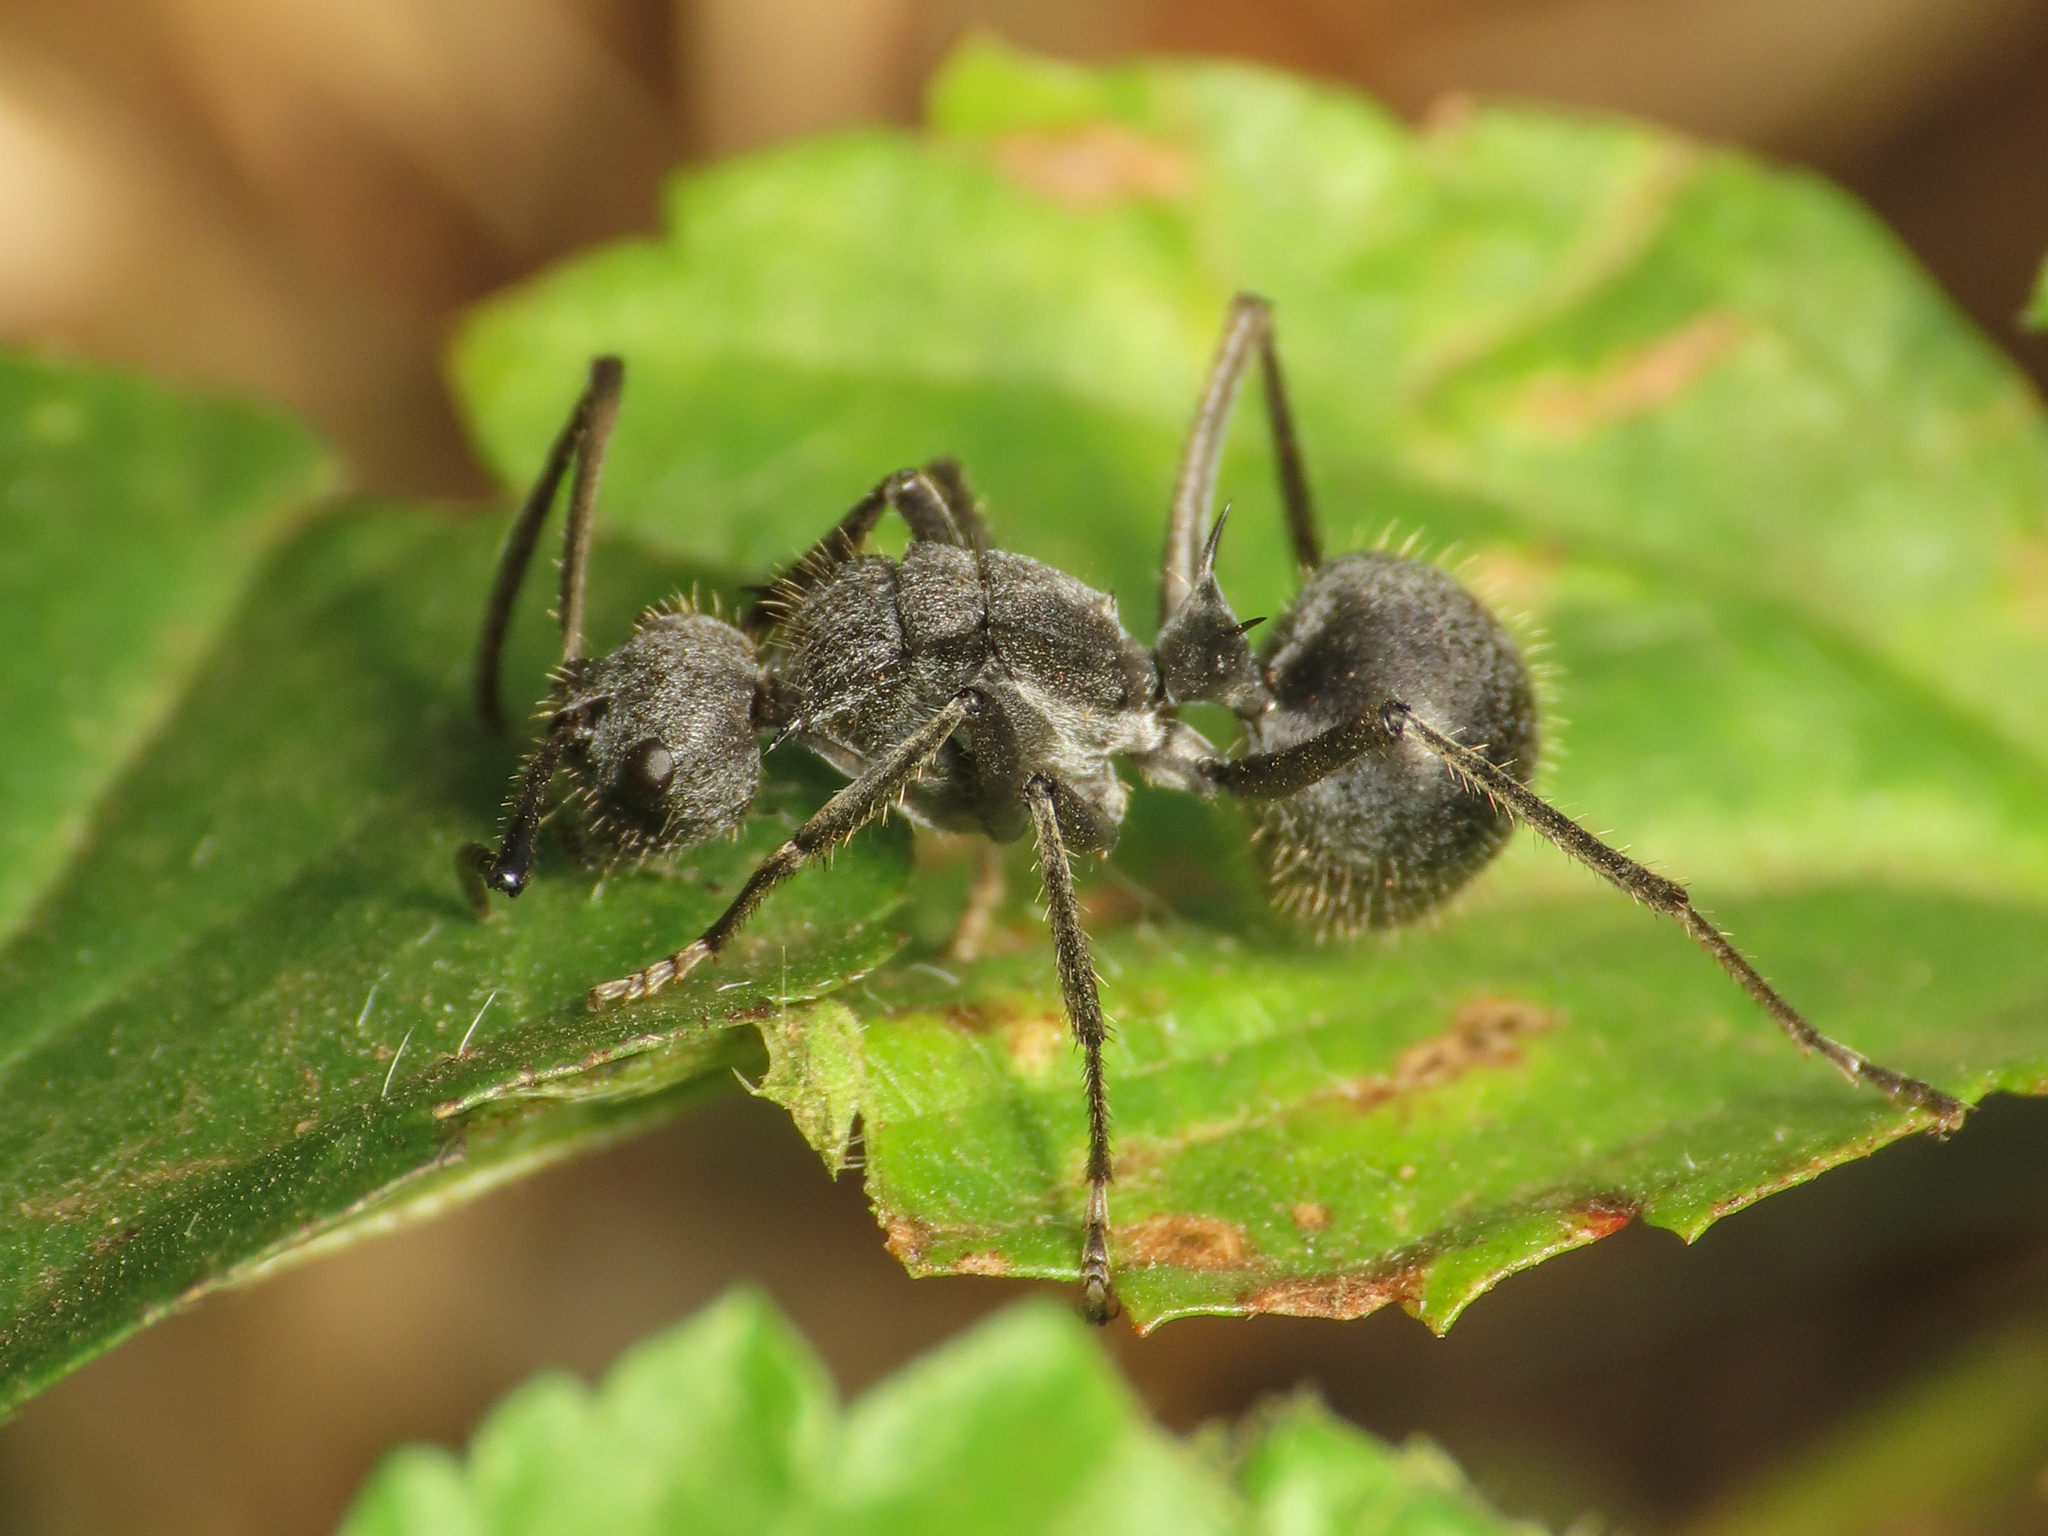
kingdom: Animalia
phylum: Arthropoda
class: Insecta
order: Hymenoptera
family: Formicidae
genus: Polyrhachis
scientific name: Polyrhachis schistacea
